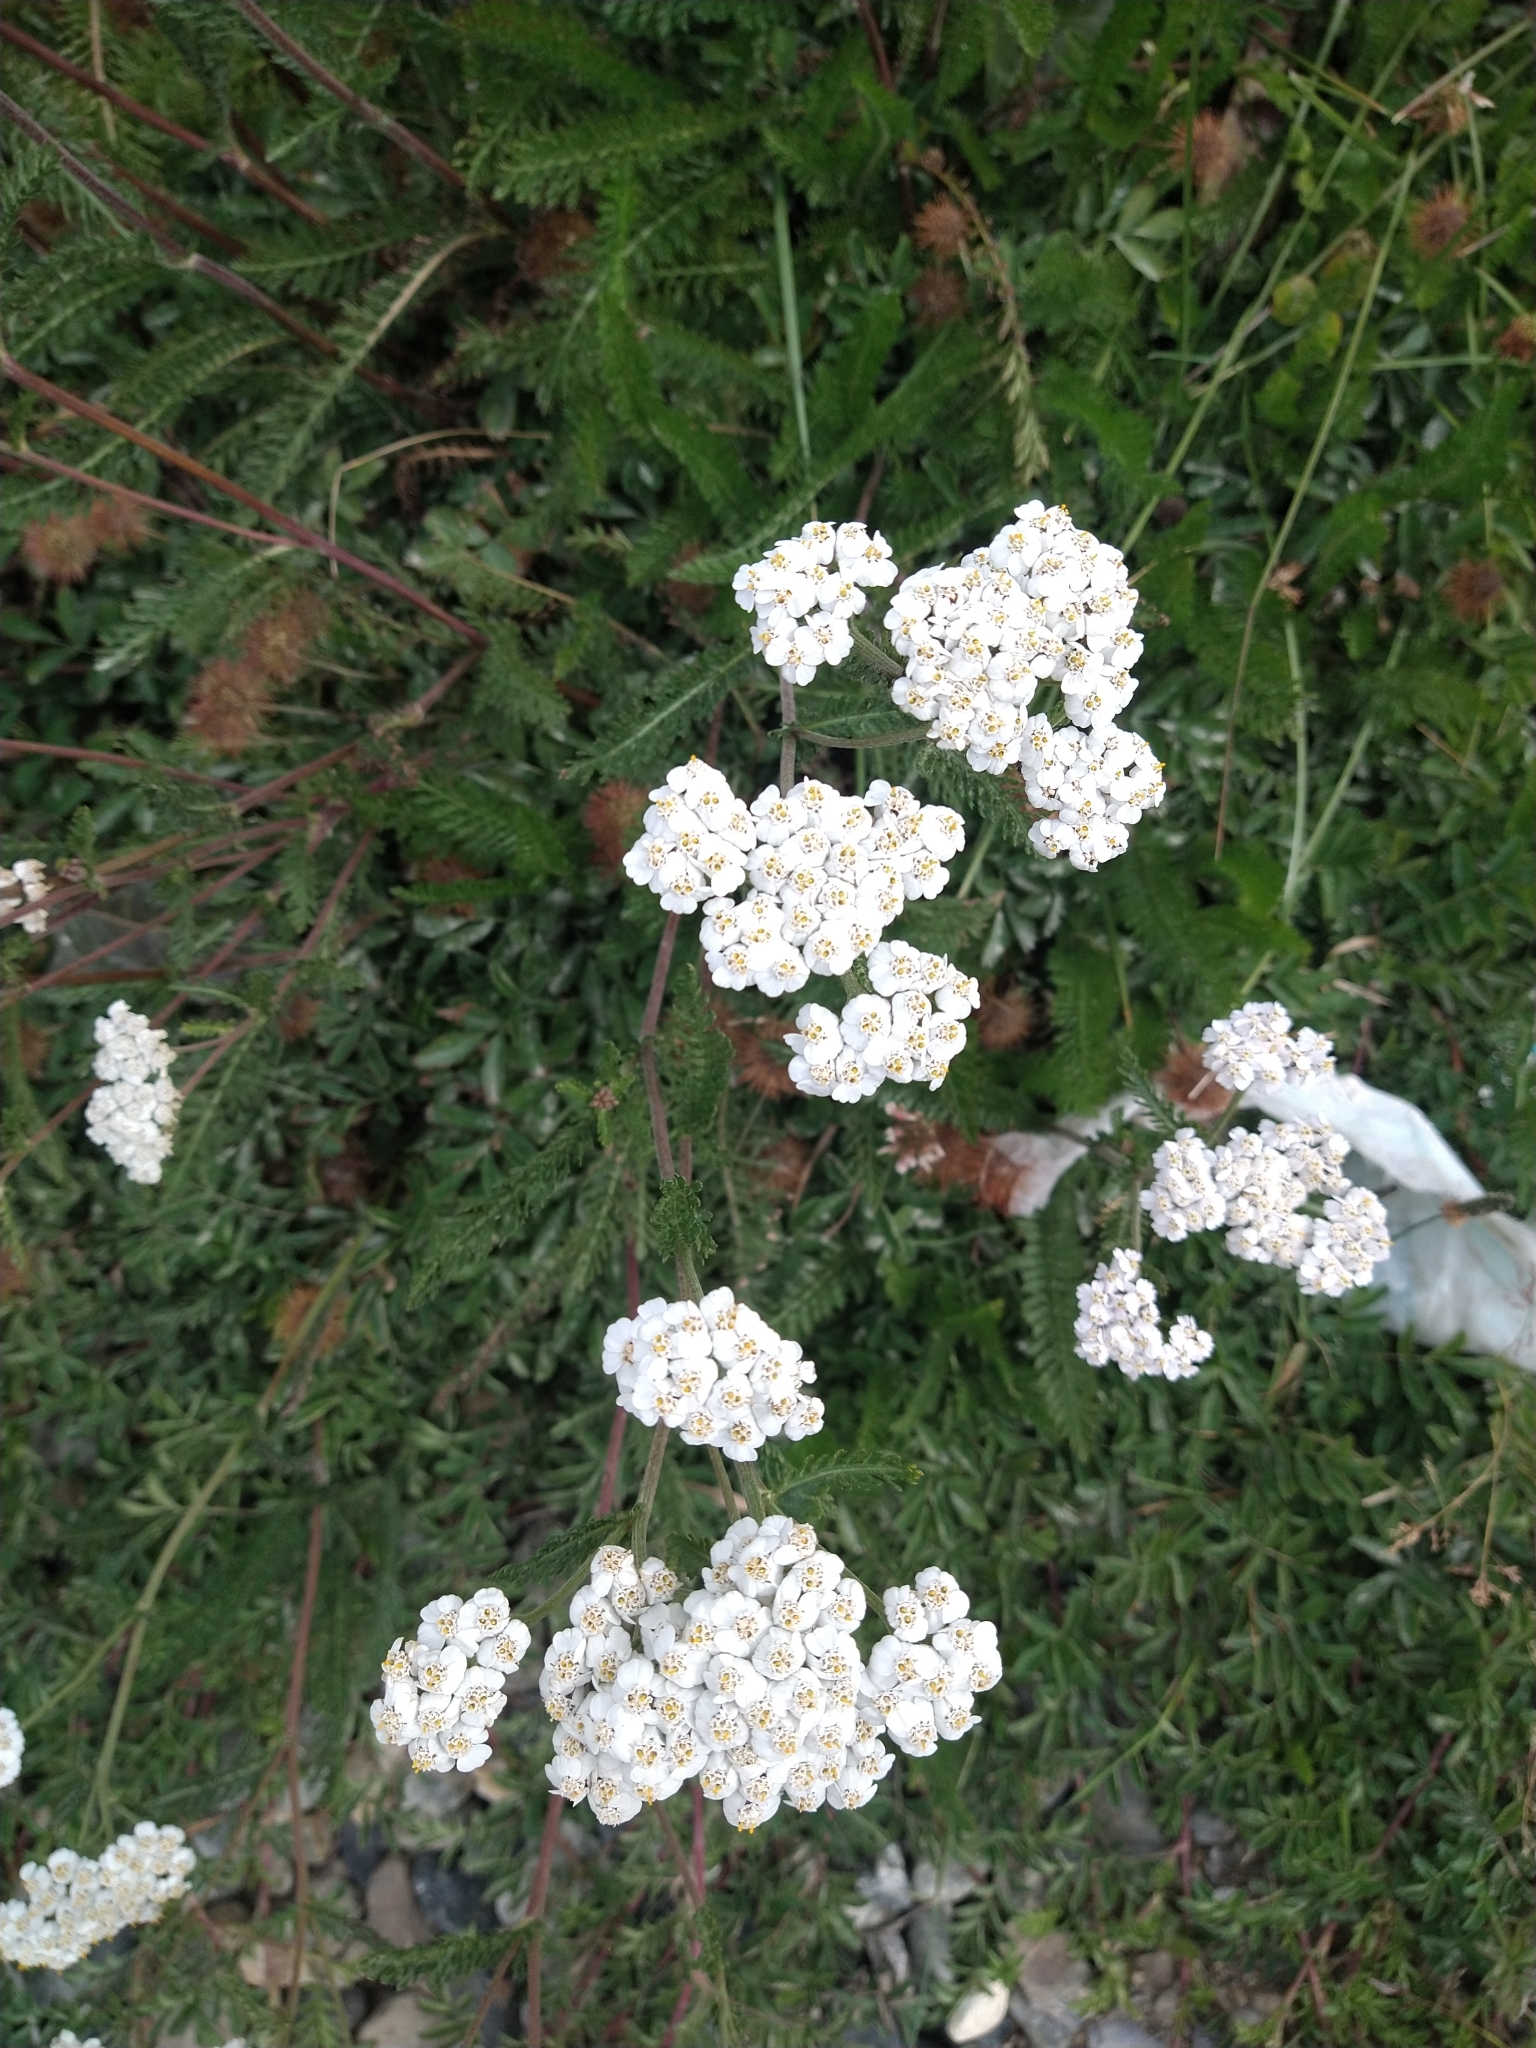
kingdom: Plantae
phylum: Tracheophyta
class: Magnoliopsida
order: Asterales
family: Asteraceae
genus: Achillea
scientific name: Achillea millefolium
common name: Yarrow
